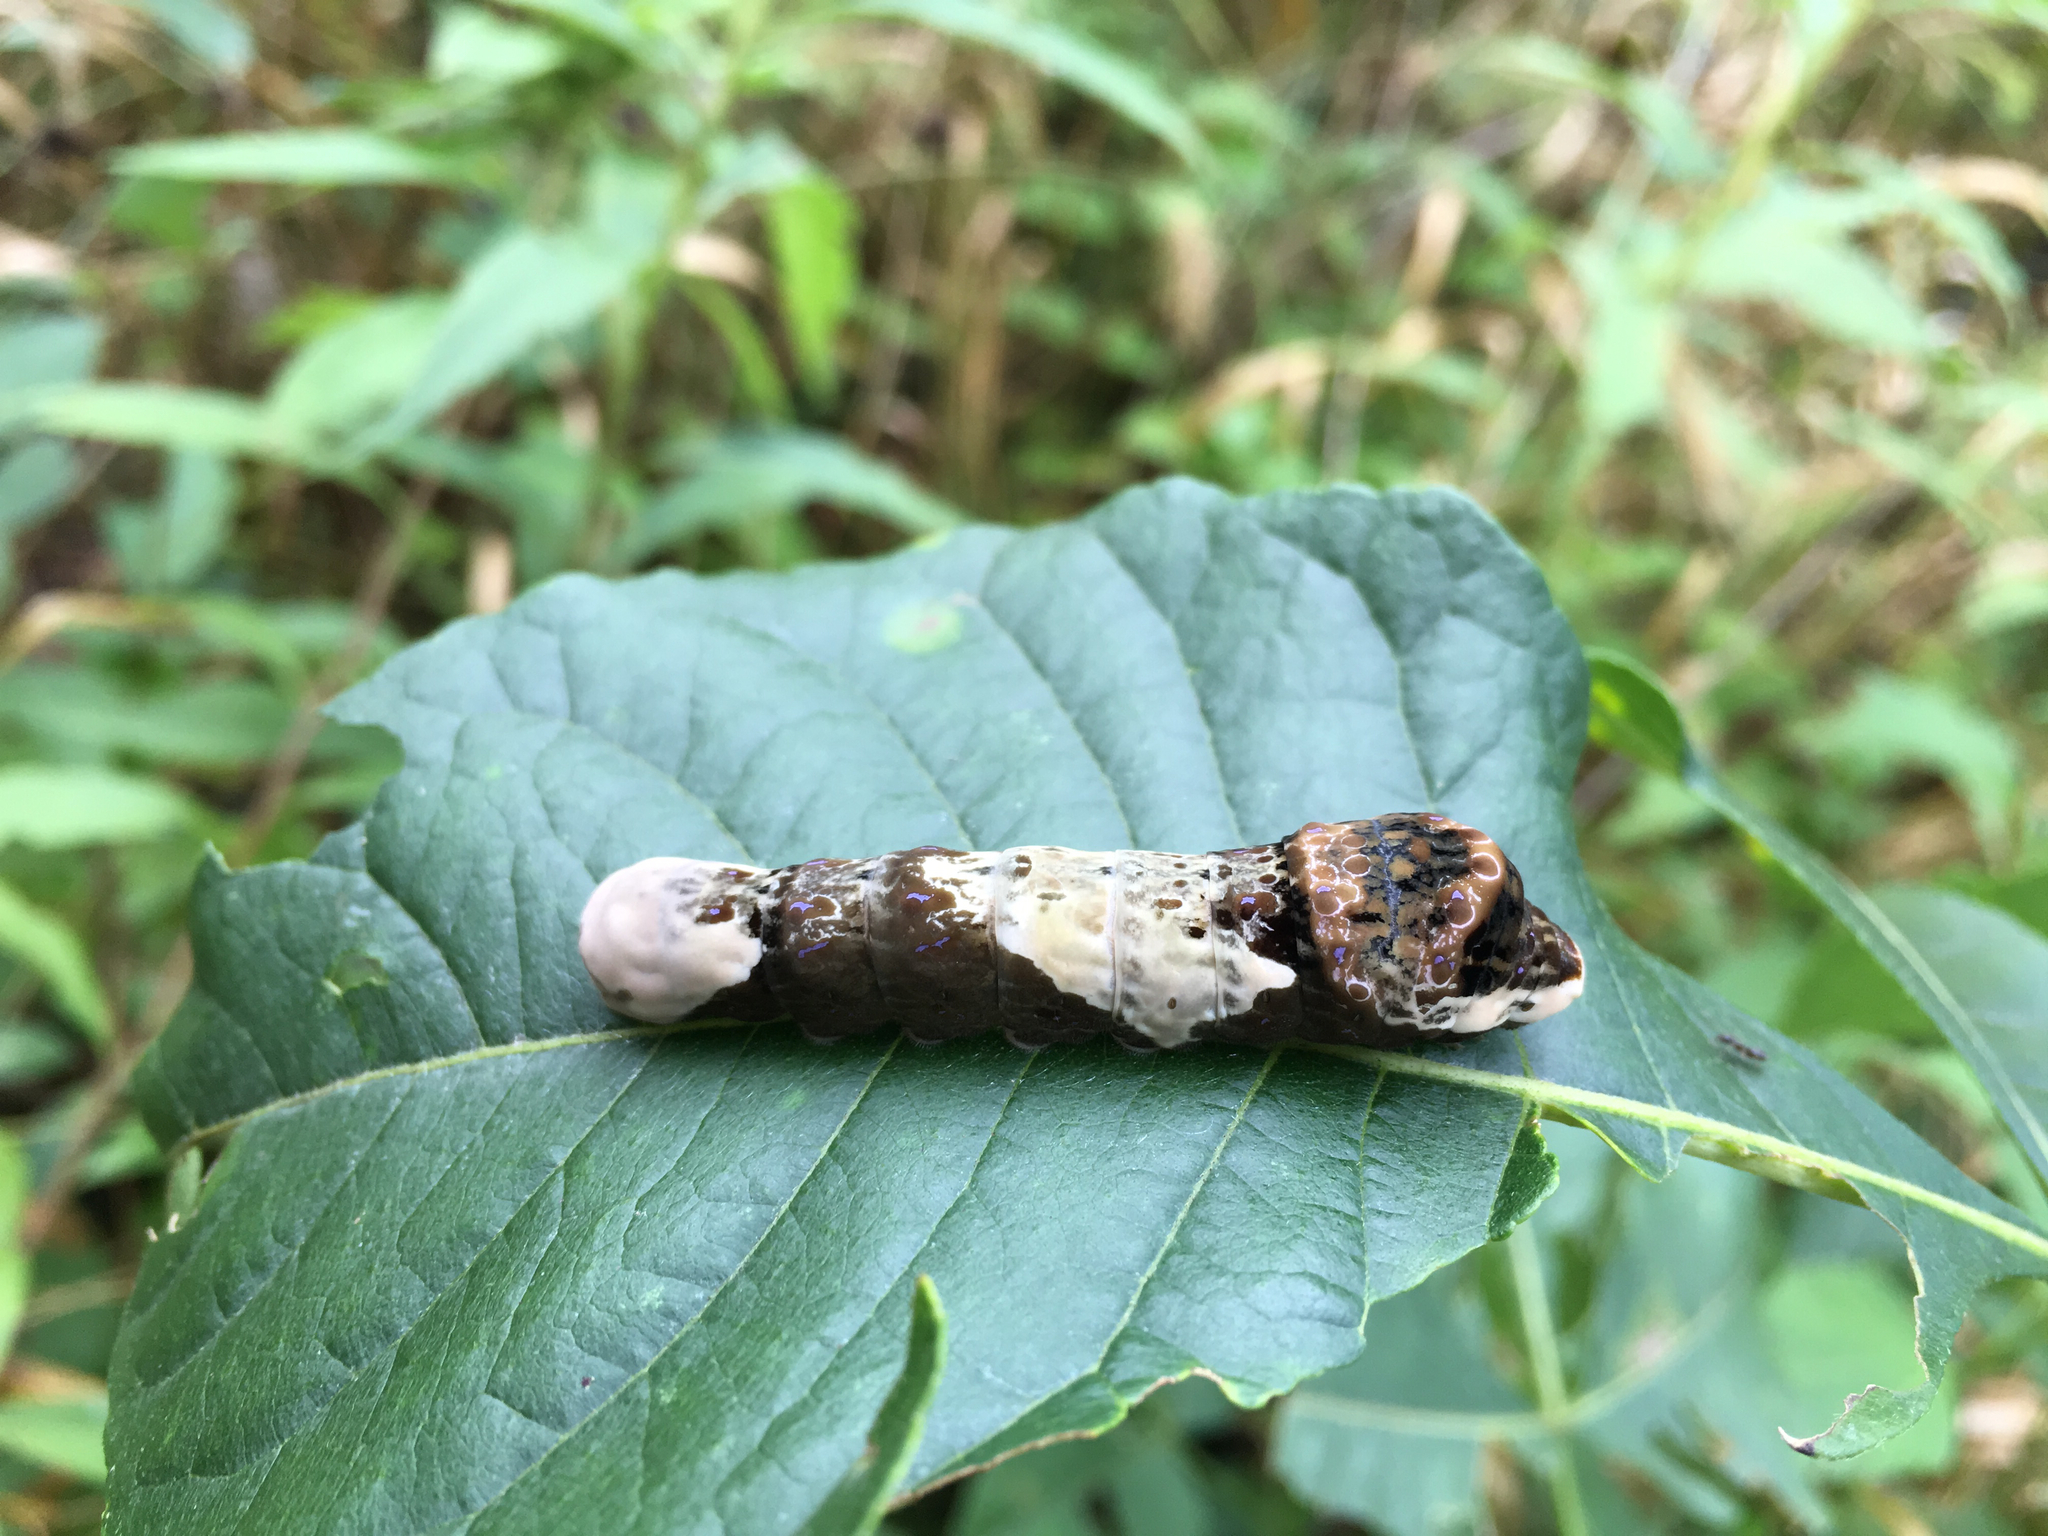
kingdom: Animalia
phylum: Arthropoda
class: Insecta
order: Lepidoptera
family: Papilionidae
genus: Papilio
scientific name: Papilio cresphontes
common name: Giant swallowtail
